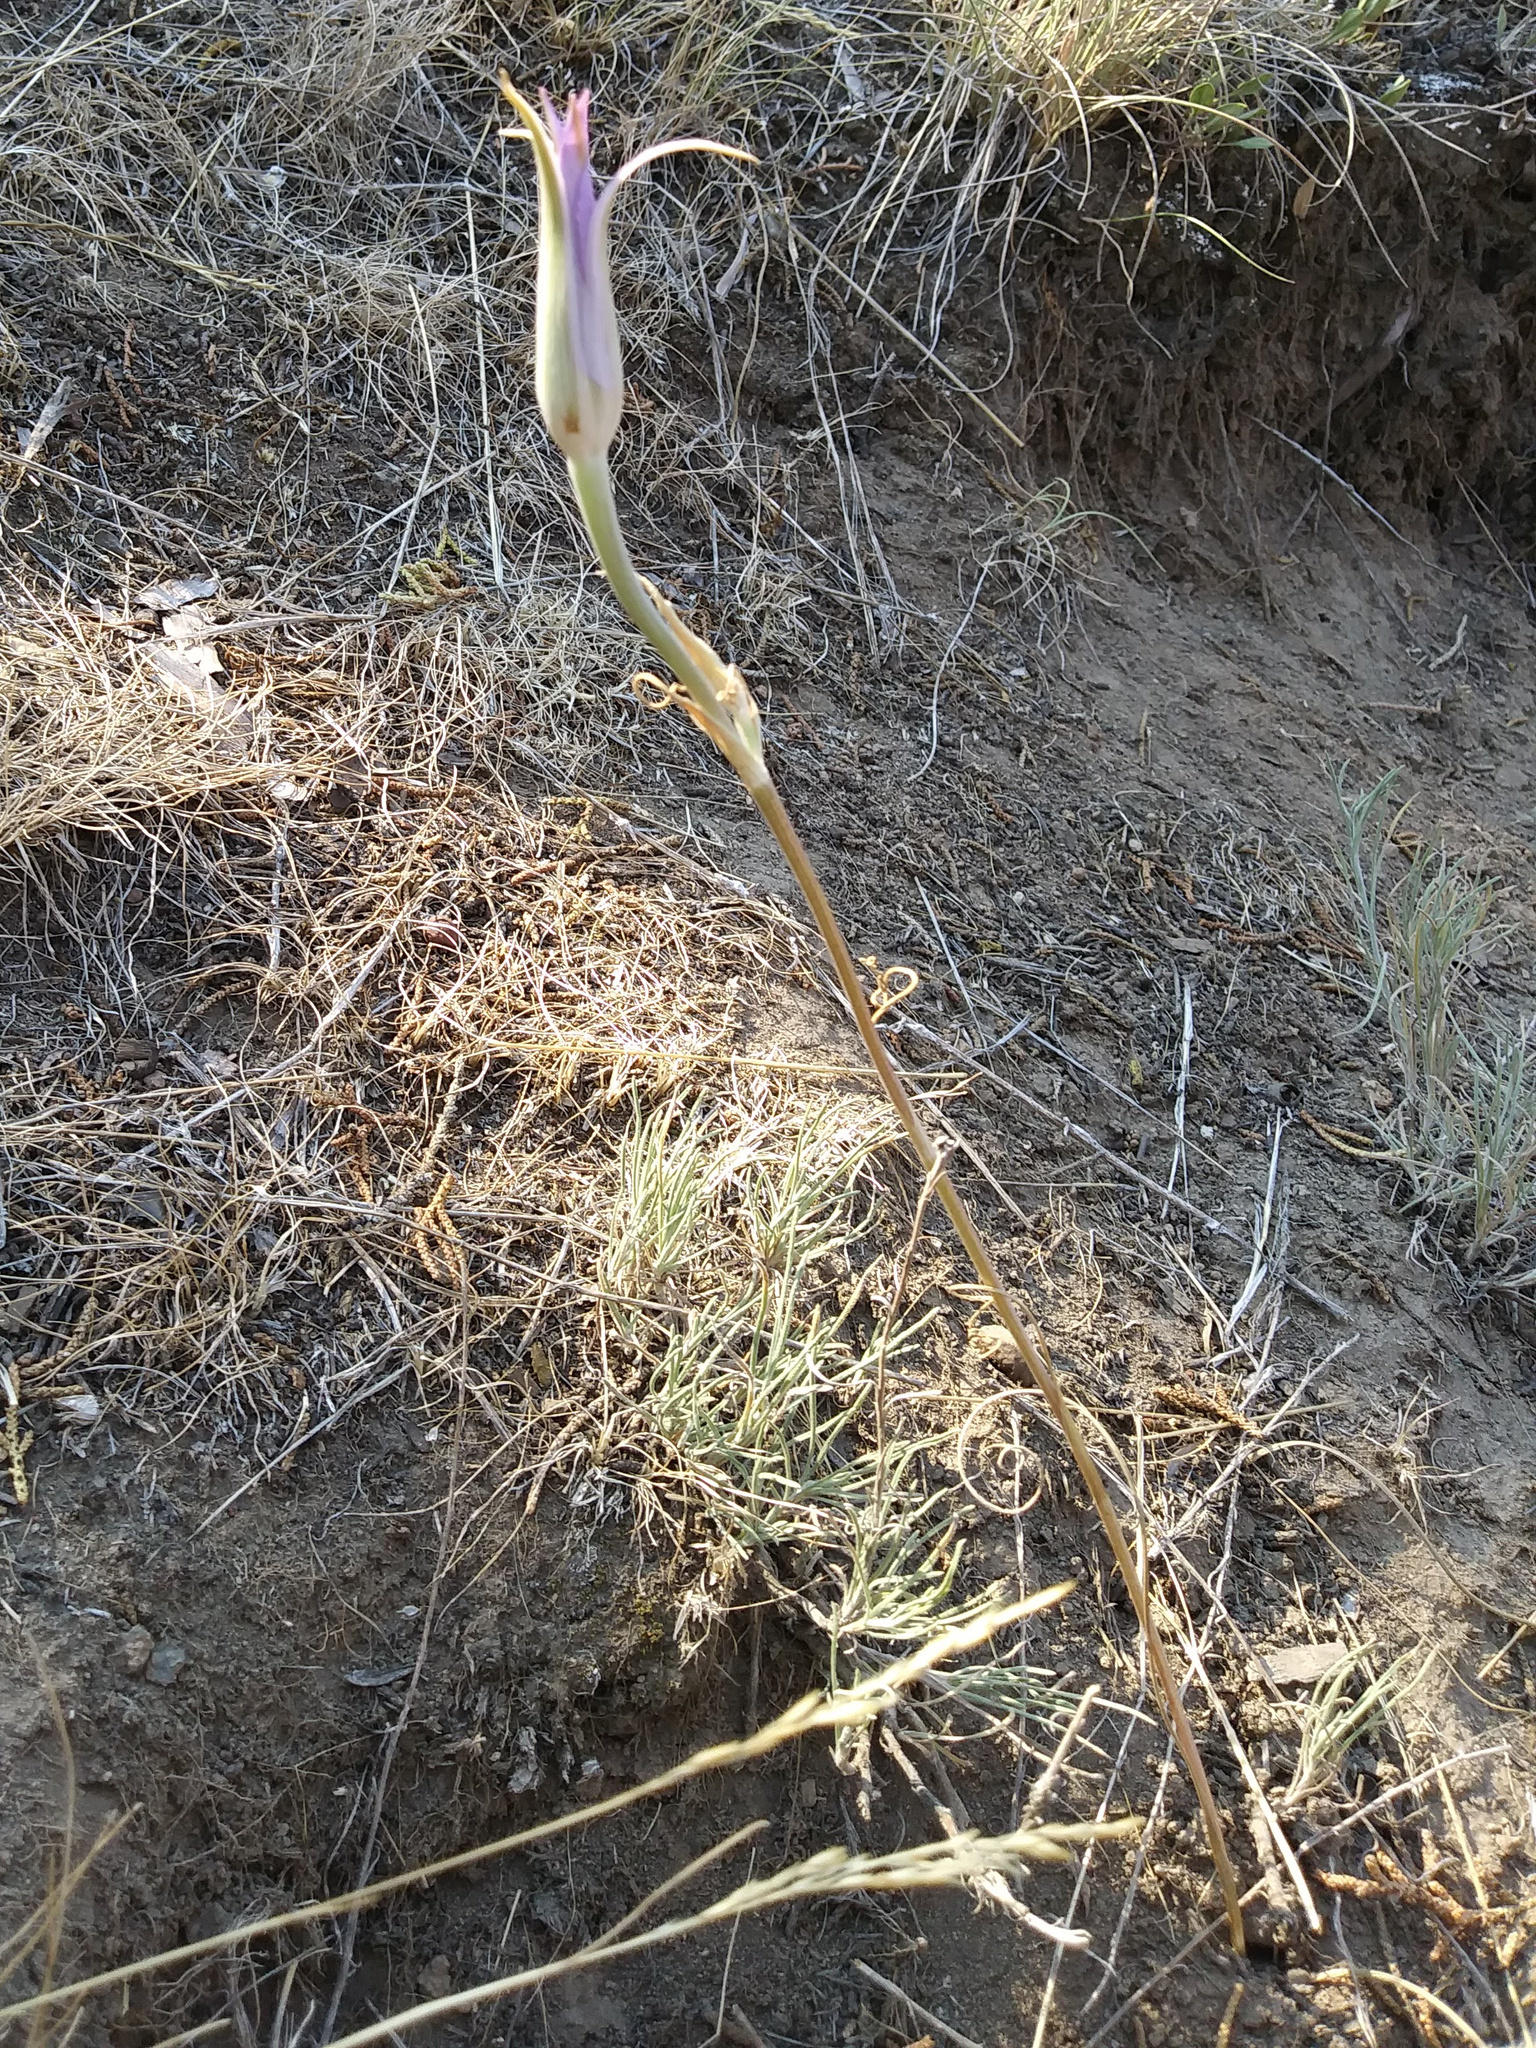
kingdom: Plantae
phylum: Tracheophyta
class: Liliopsida
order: Liliales
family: Liliaceae
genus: Calochortus
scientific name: Calochortus macrocarpus
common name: Green-band mariposa lily
